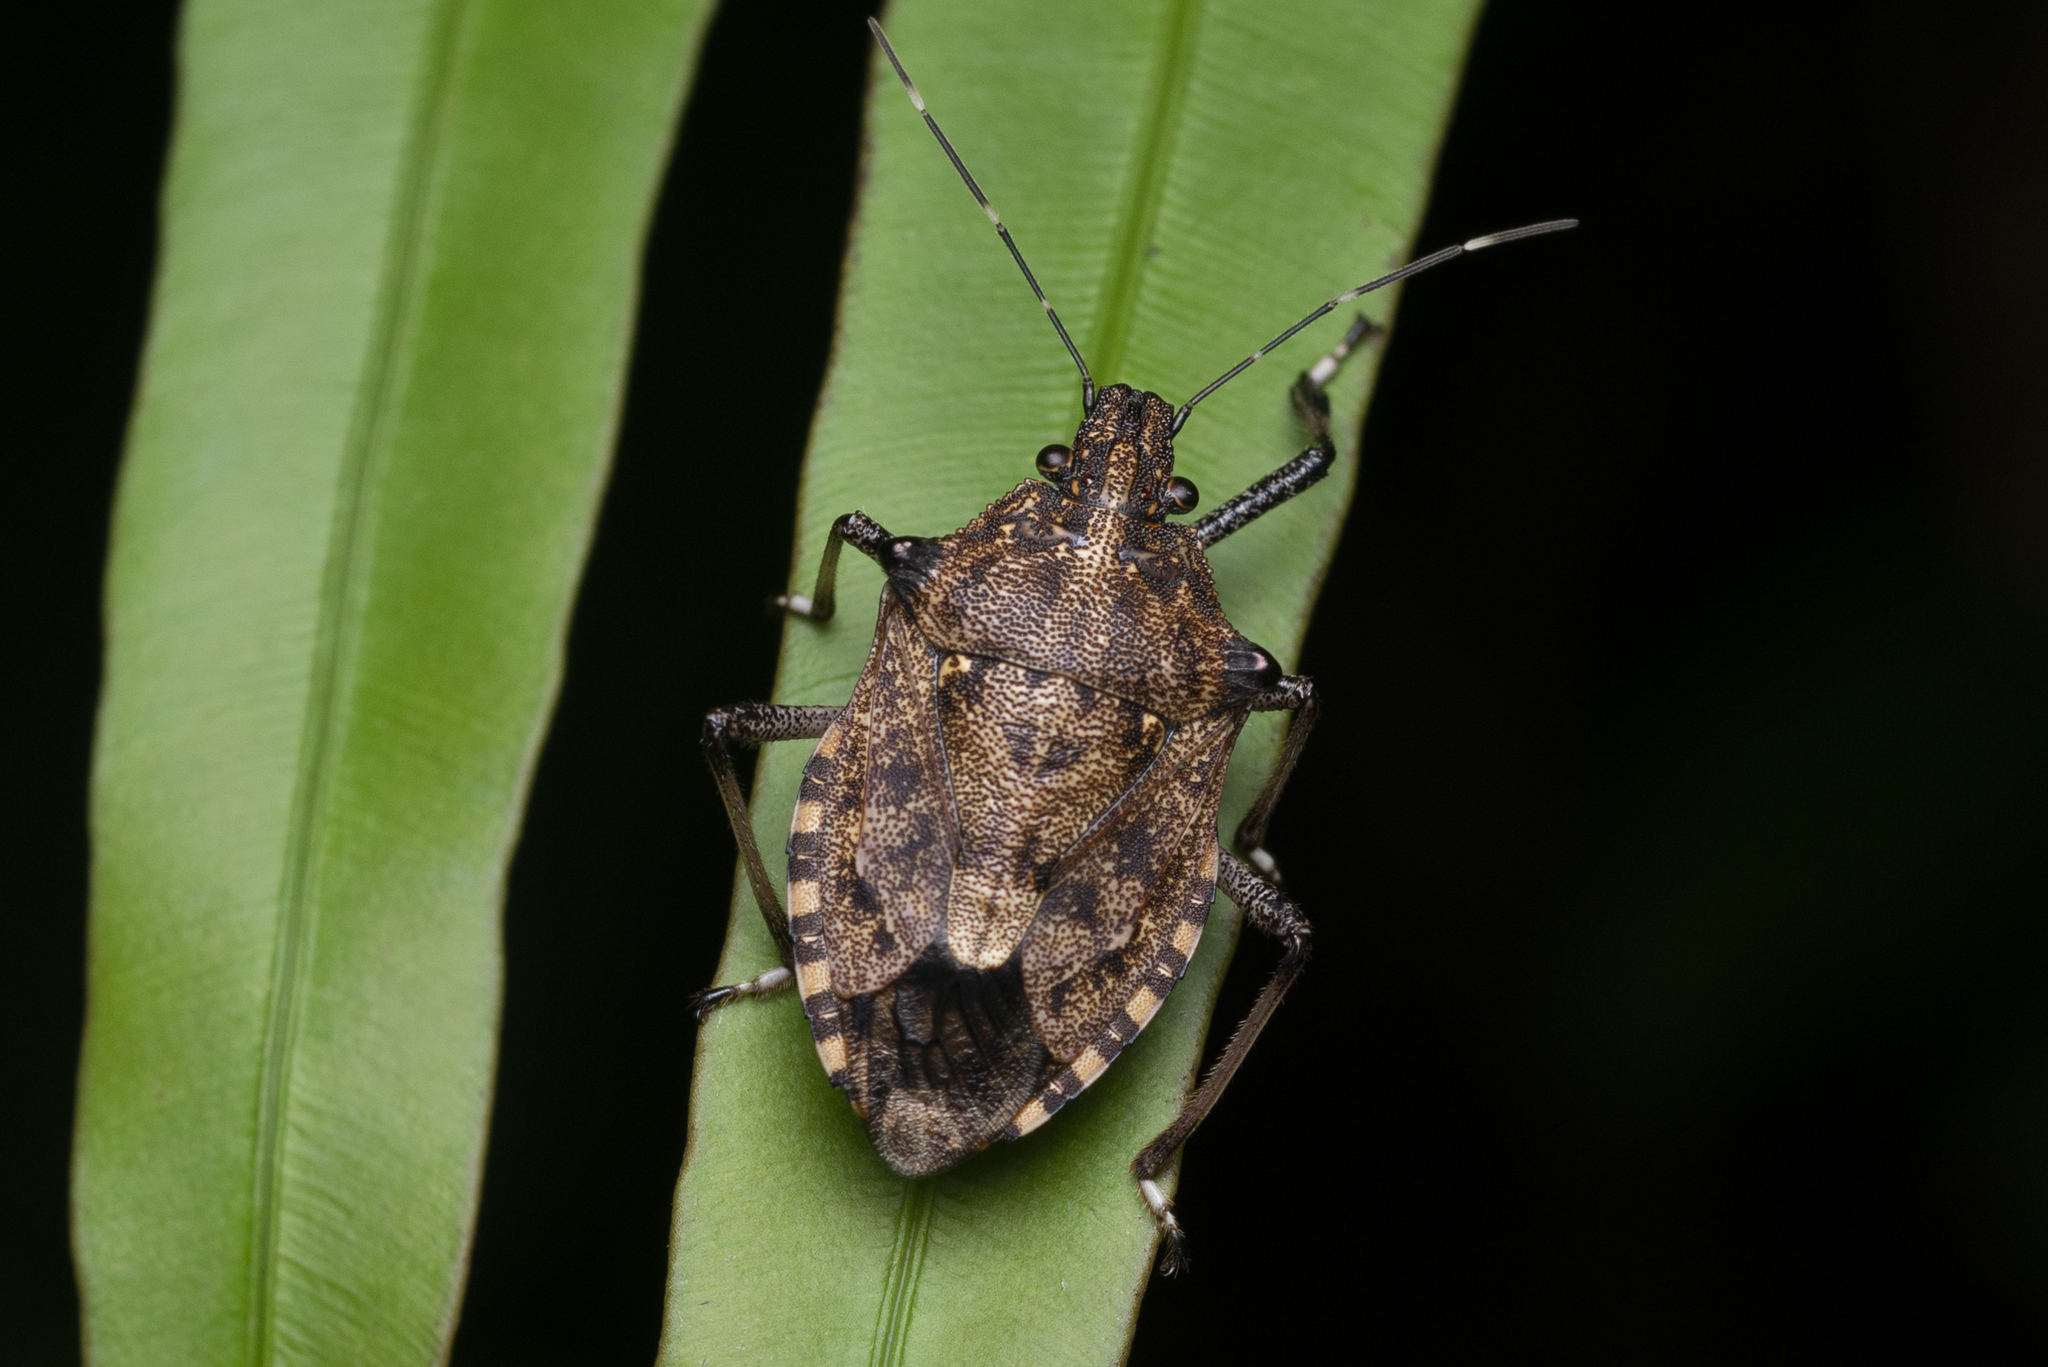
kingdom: Animalia
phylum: Arthropoda
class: Insecta
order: Hemiptera
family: Pentatomidae
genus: Dalpada
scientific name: Dalpada nodifera
